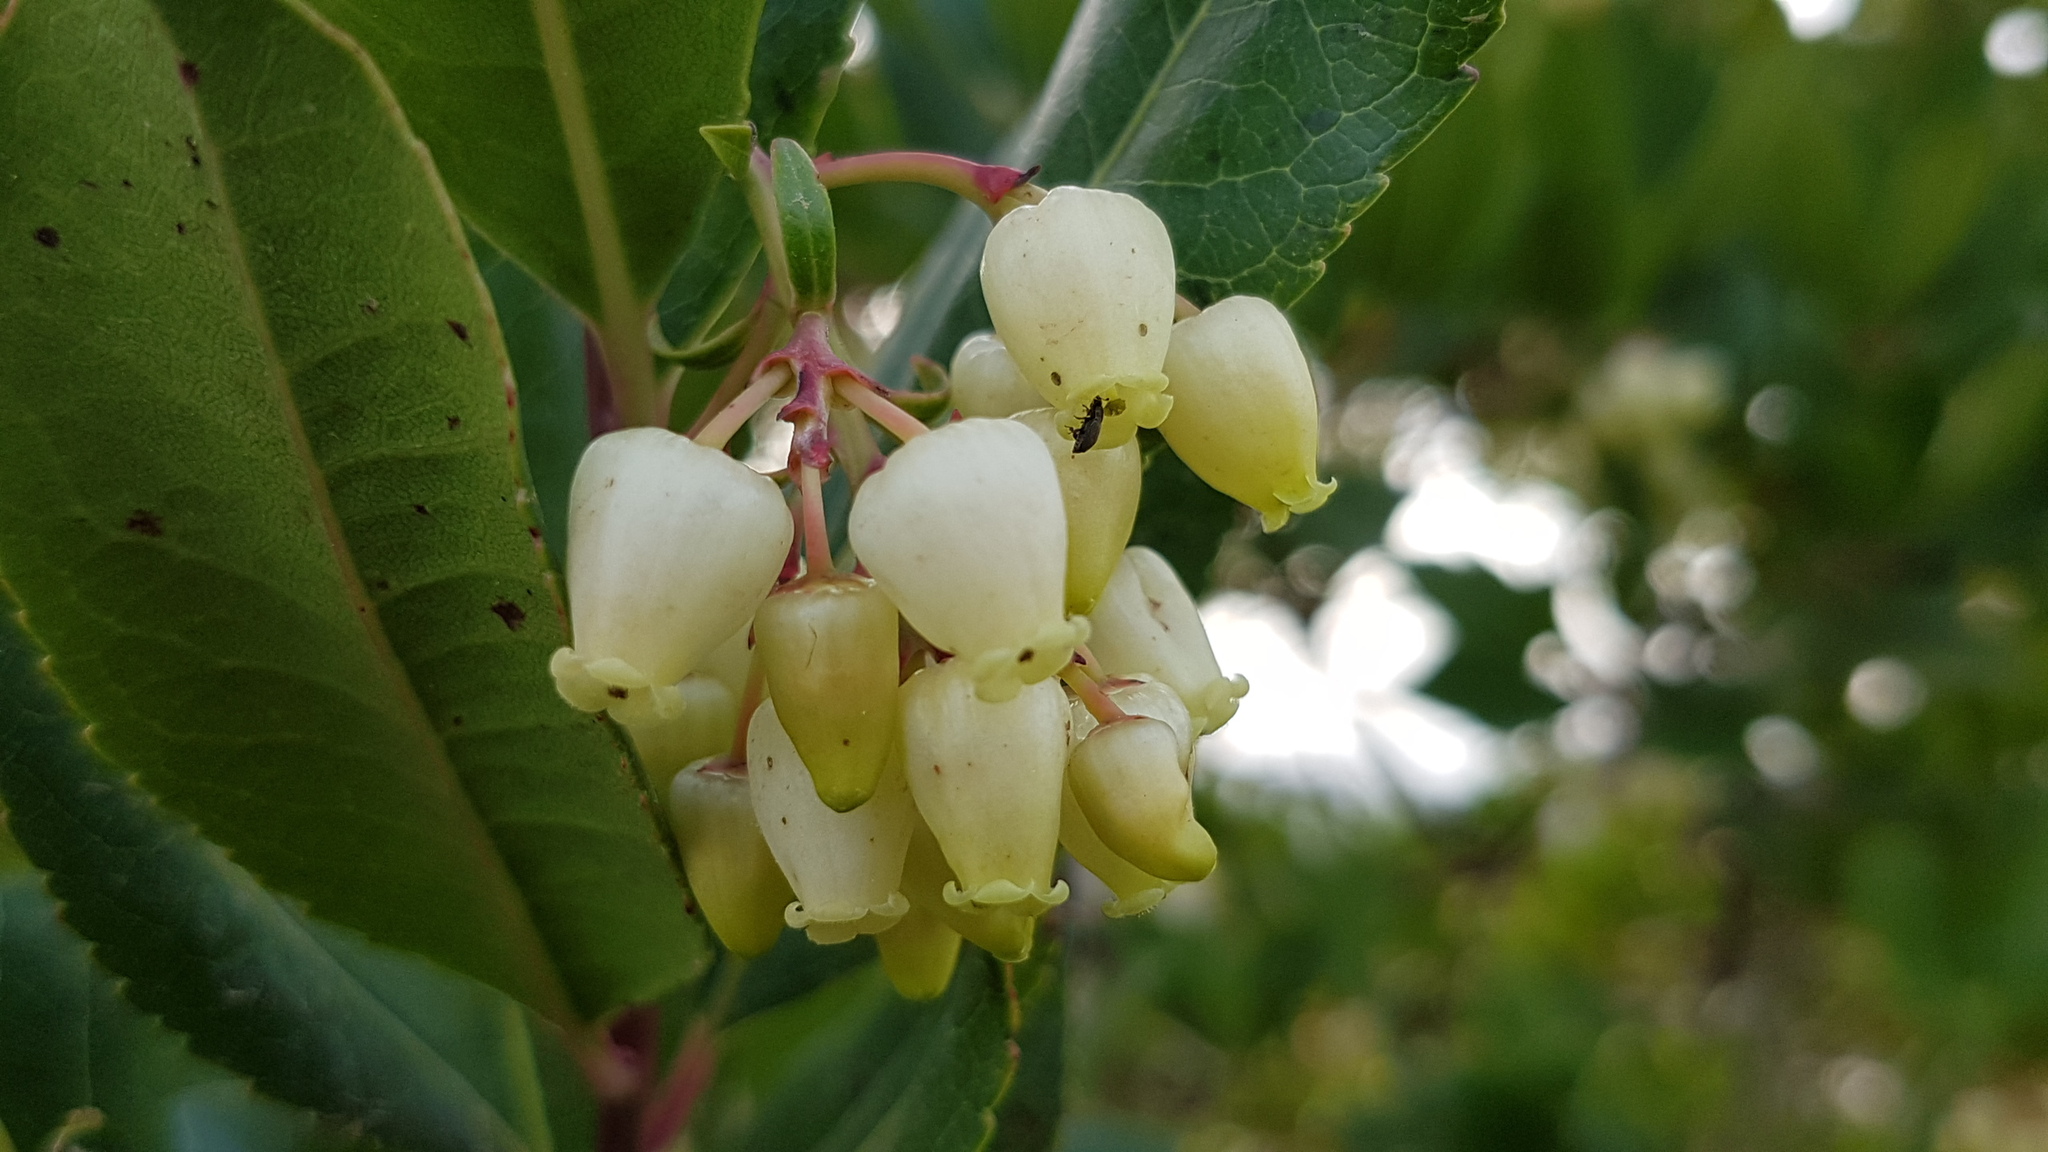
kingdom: Plantae
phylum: Tracheophyta
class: Magnoliopsida
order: Ericales
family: Ericaceae
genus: Arbutus
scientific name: Arbutus unedo
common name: Strawberry-tree
